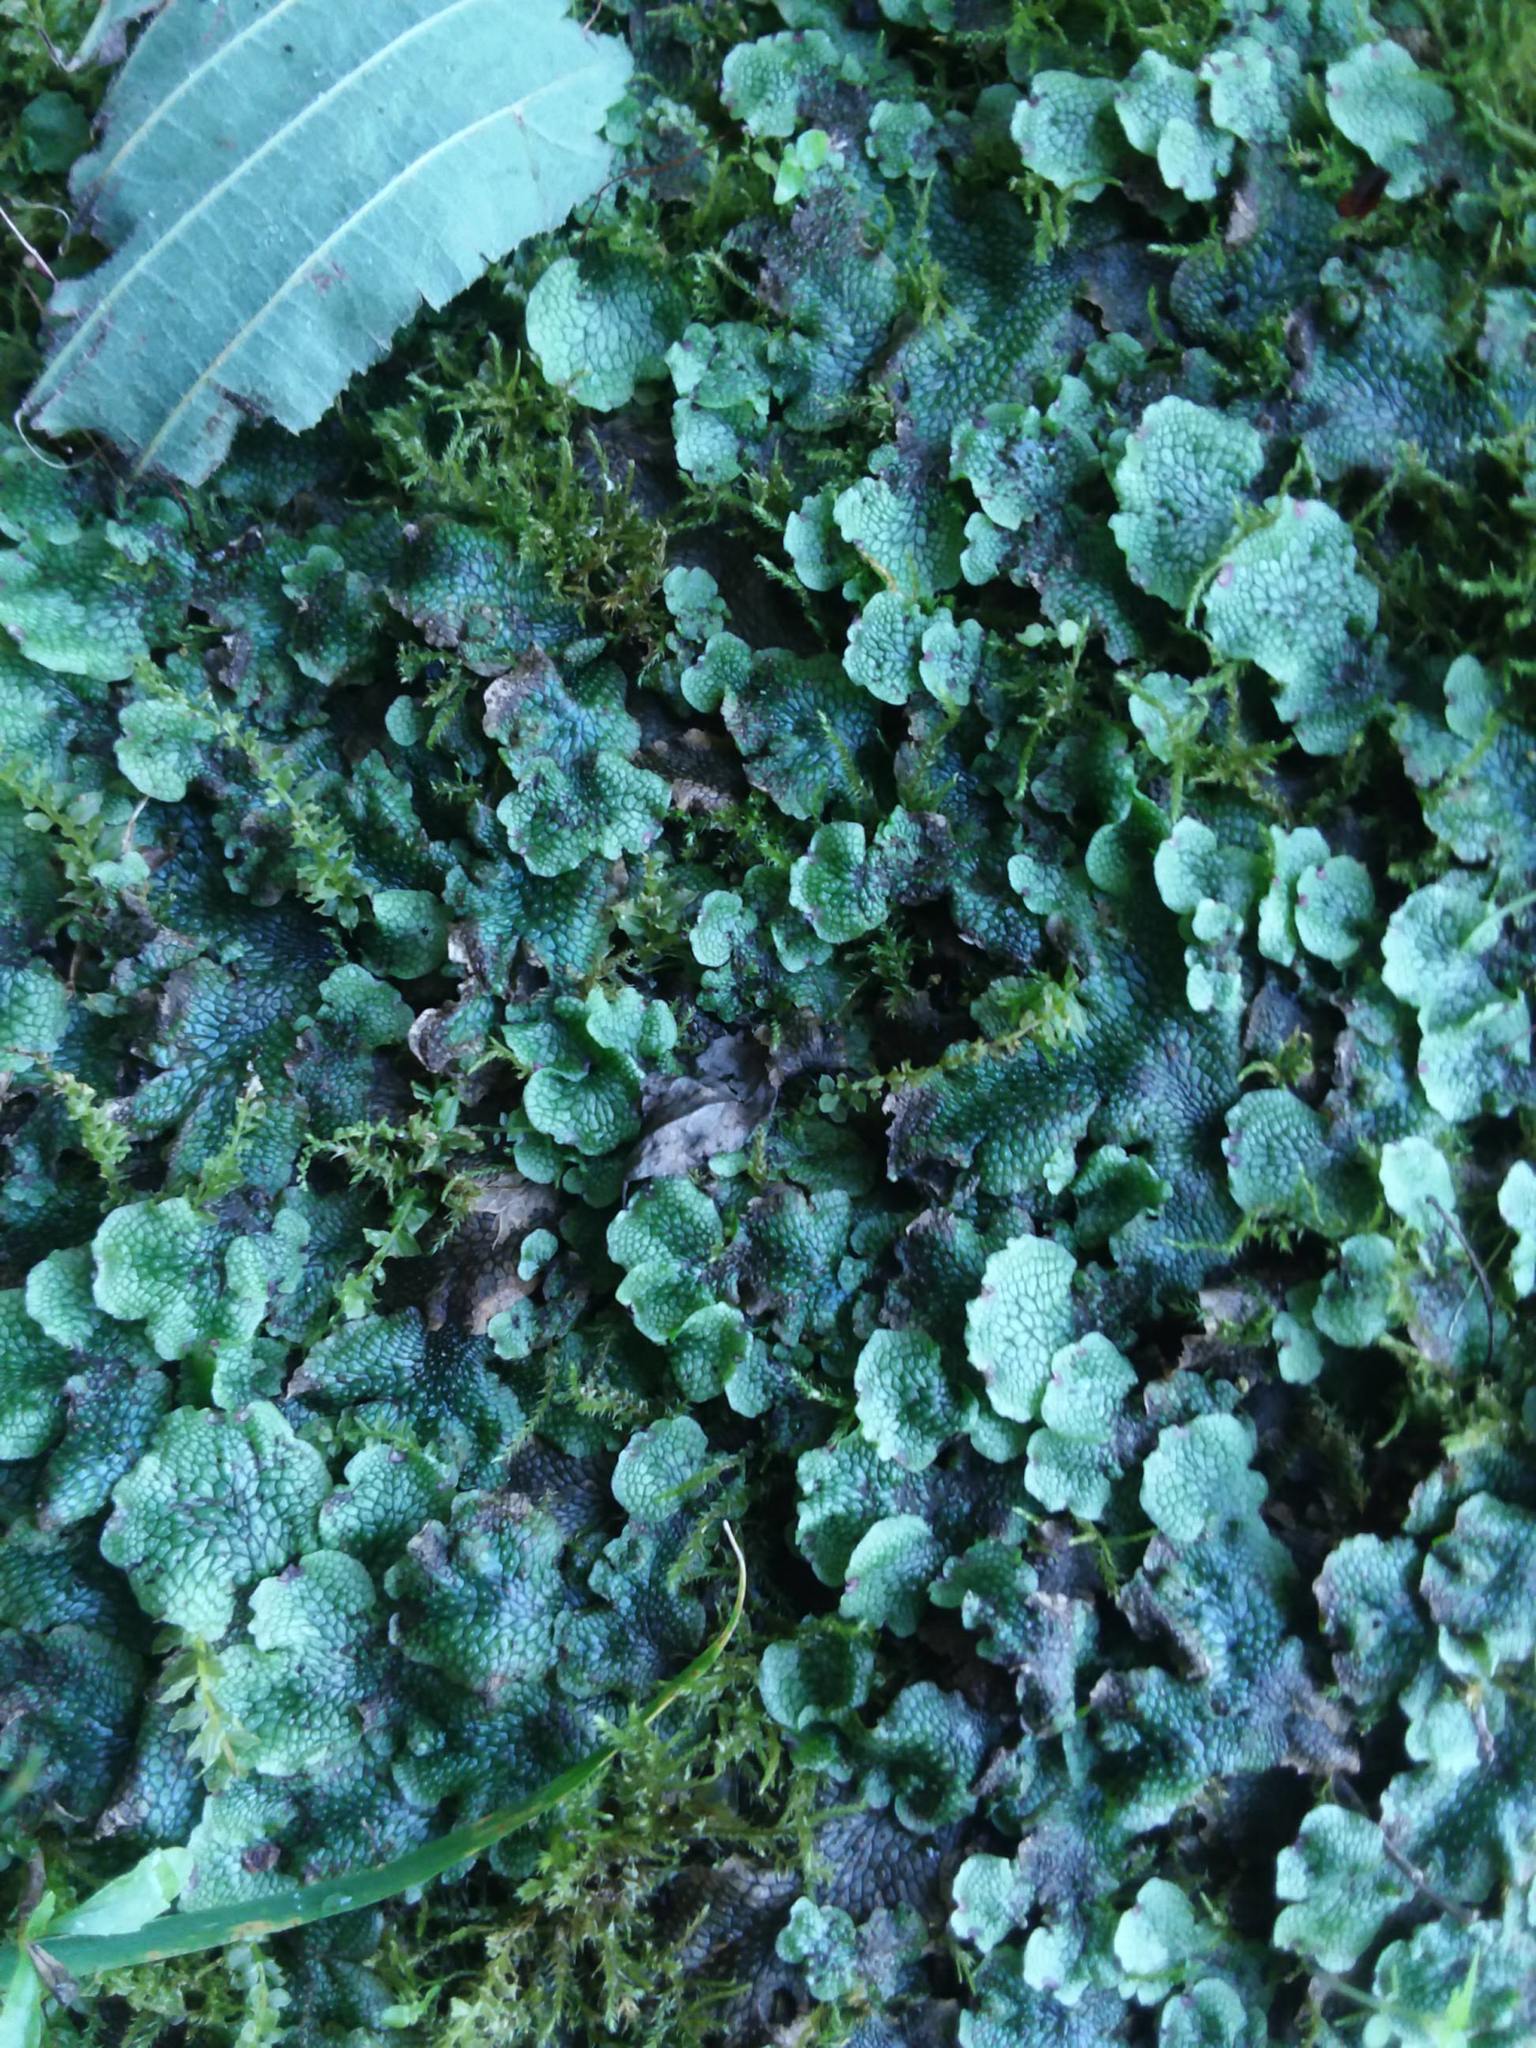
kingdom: Plantae
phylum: Marchantiophyta
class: Marchantiopsida
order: Marchantiales
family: Conocephalaceae
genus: Conocephalum
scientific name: Conocephalum salebrosum
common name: Cat-tongue liverwort
